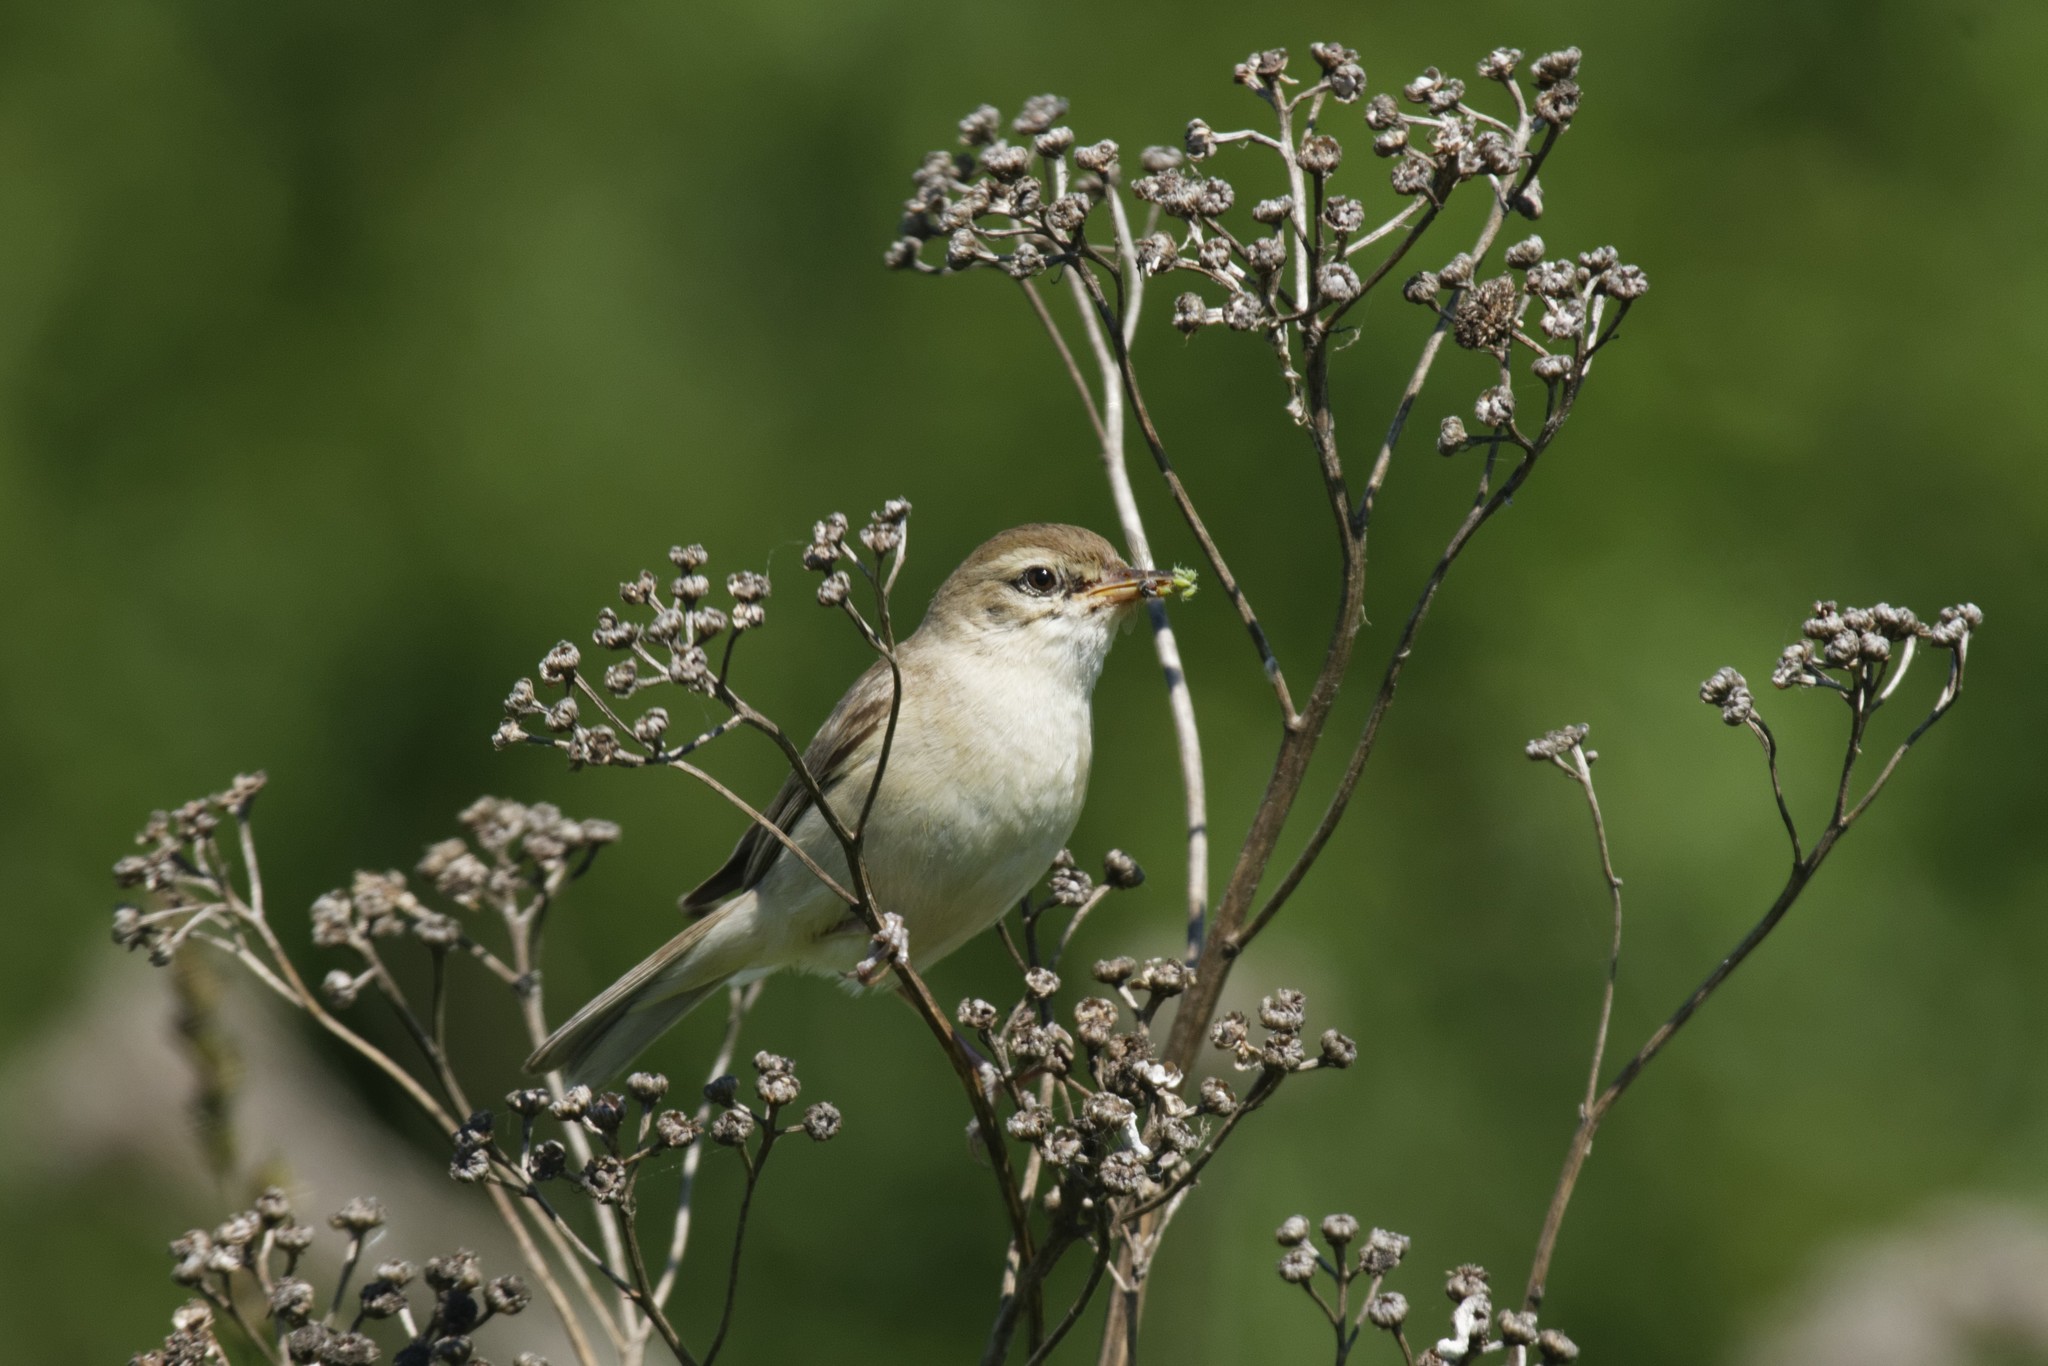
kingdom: Animalia
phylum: Chordata
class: Aves
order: Passeriformes
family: Acrocephalidae
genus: Iduna
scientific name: Iduna caligata
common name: Booted warbler
